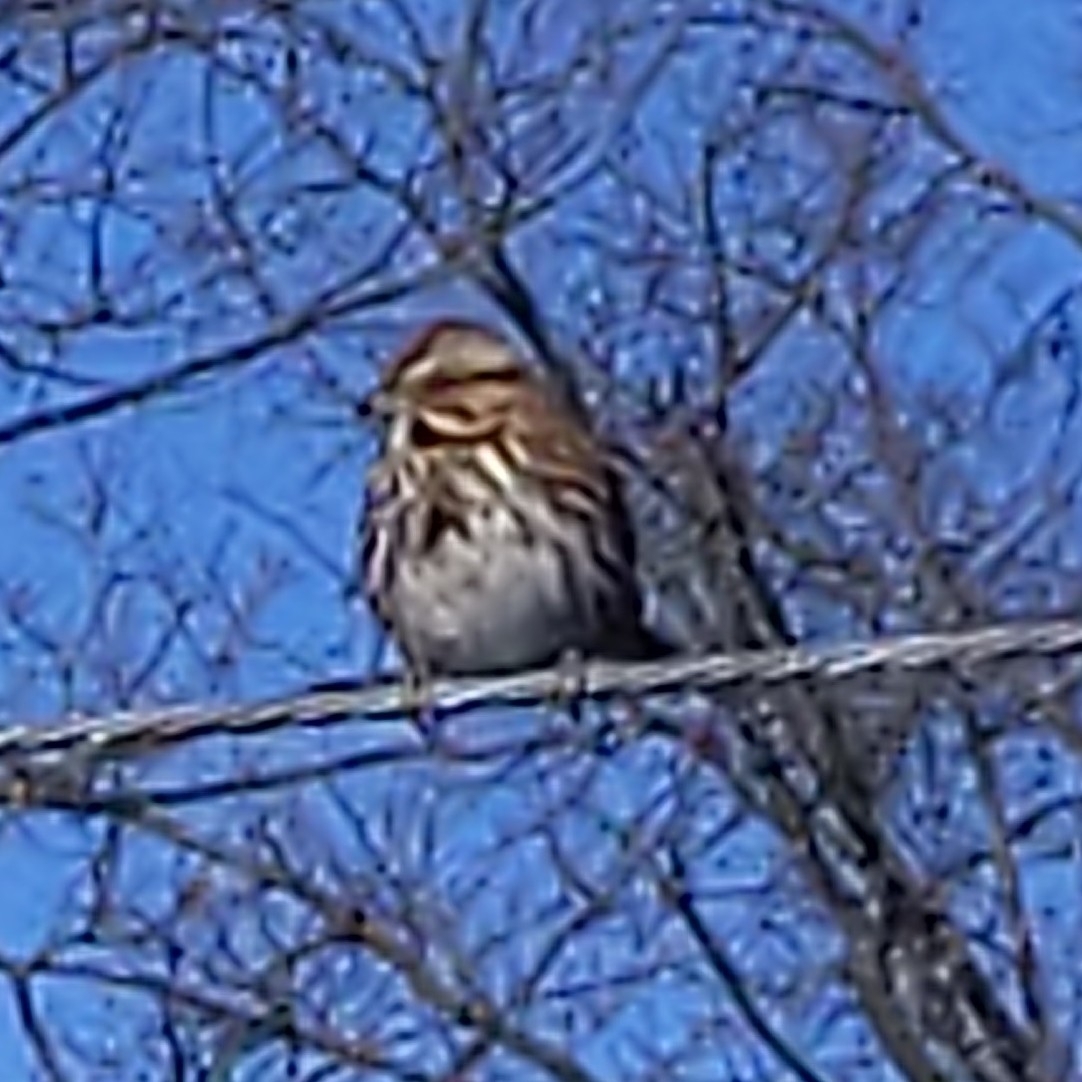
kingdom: Animalia
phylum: Chordata
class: Aves
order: Passeriformes
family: Passerellidae
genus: Melospiza
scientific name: Melospiza melodia
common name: Song sparrow
